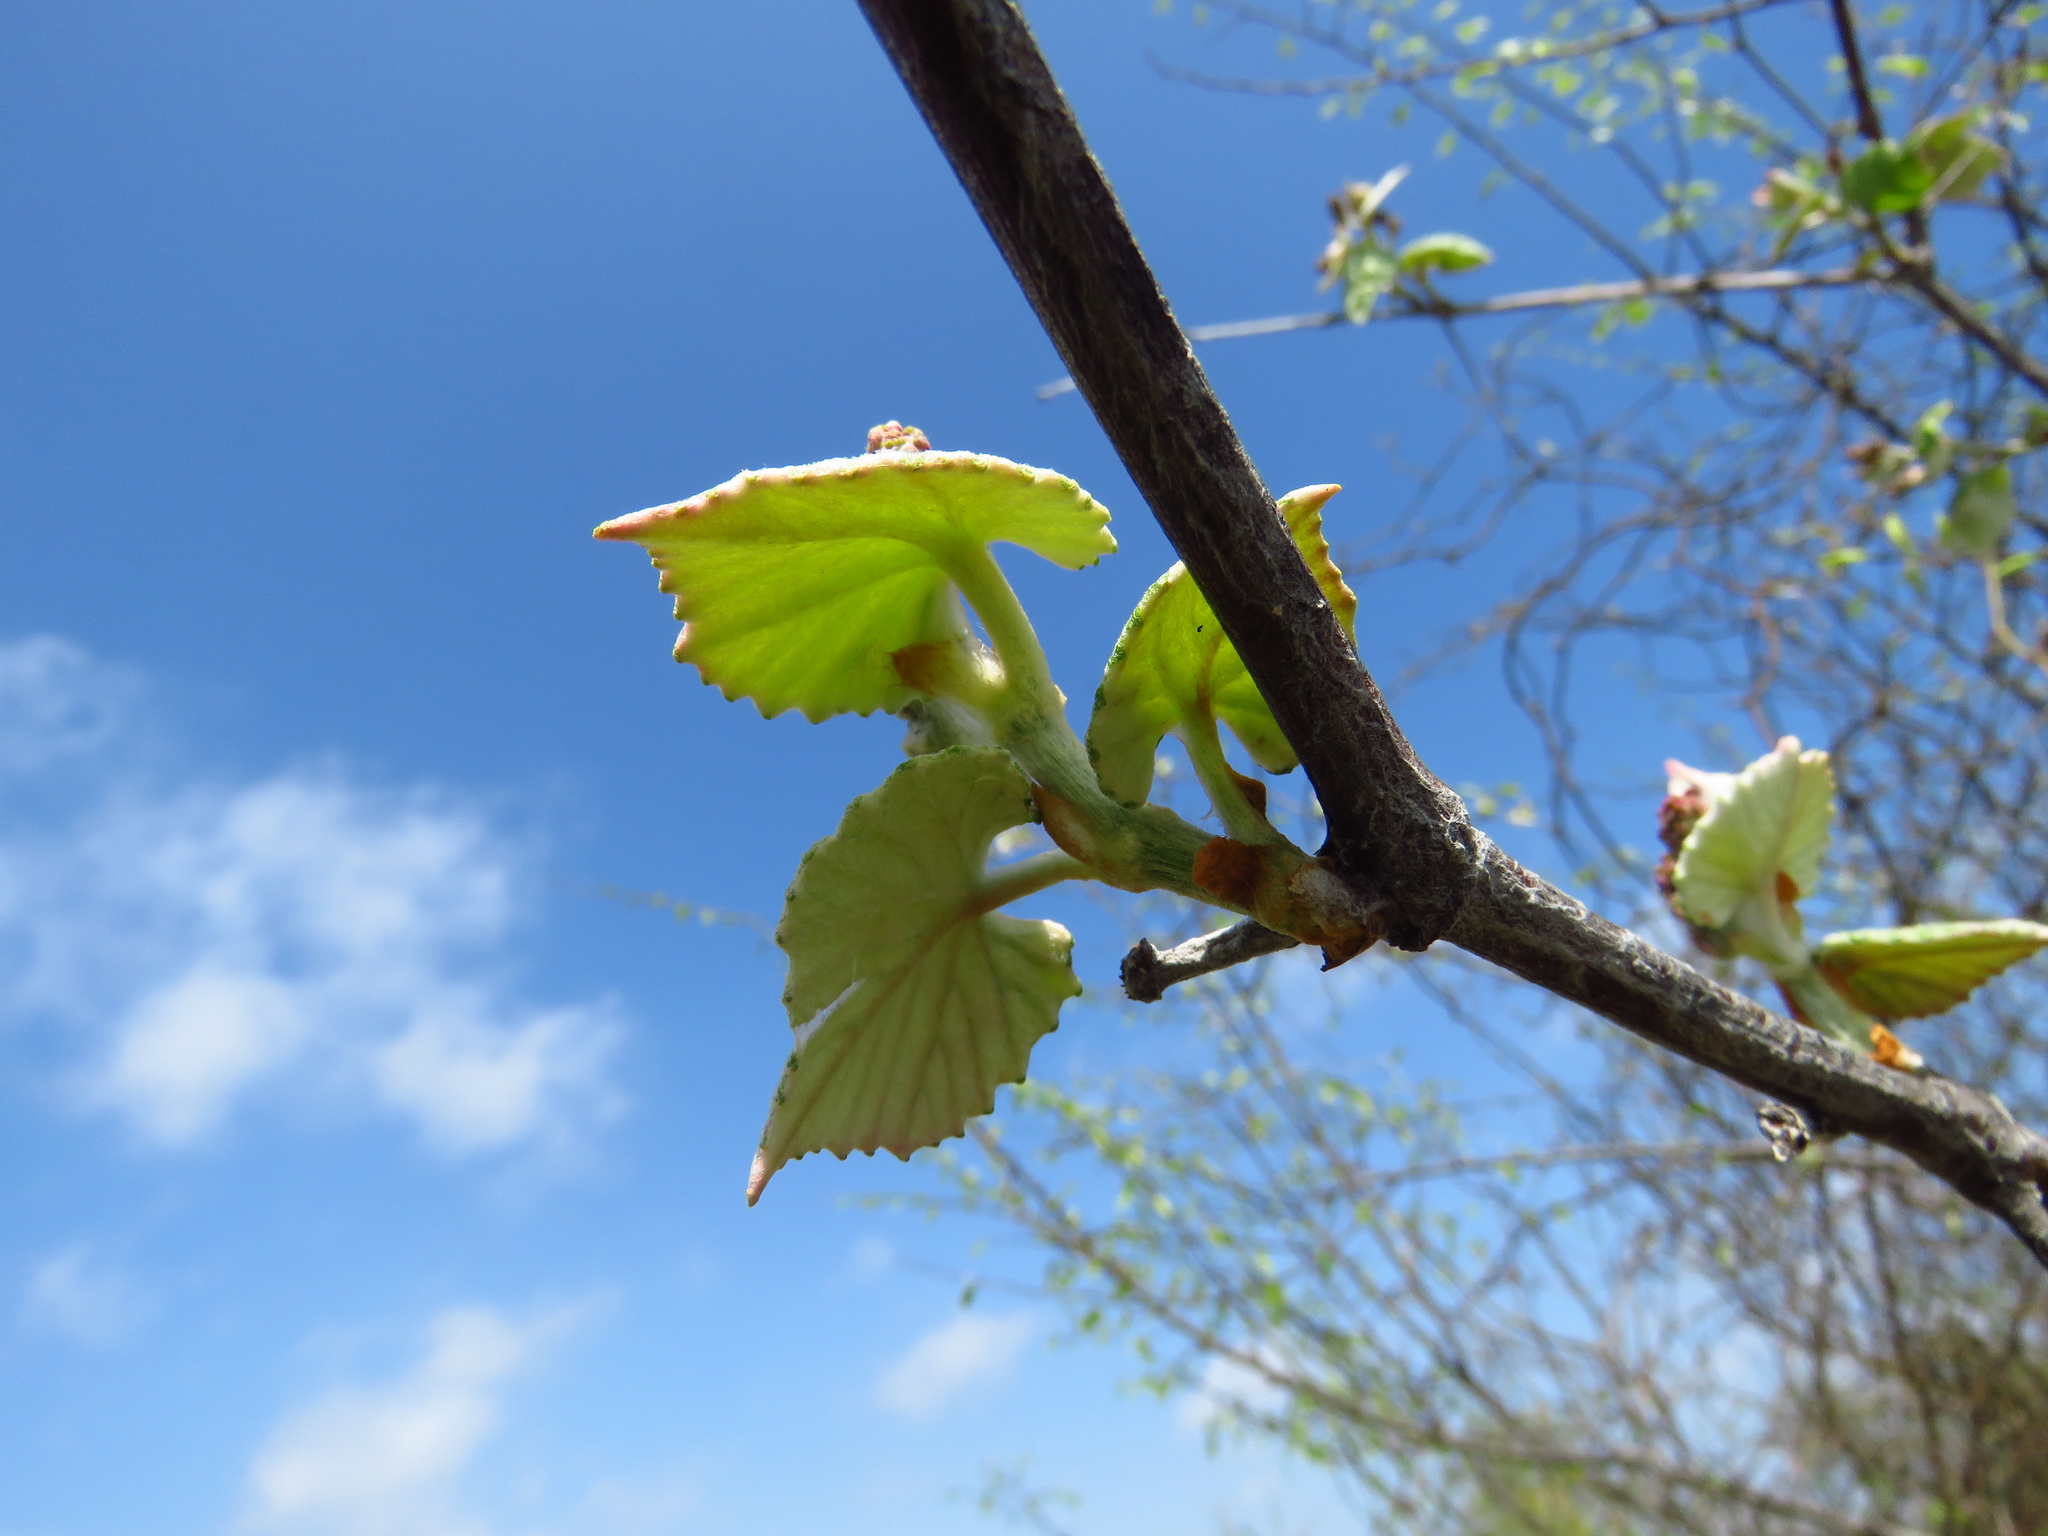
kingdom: Plantae
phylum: Tracheophyta
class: Magnoliopsida
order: Vitales
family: Vitaceae
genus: Vitis
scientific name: Vitis mustangensis
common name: Mustang grape
